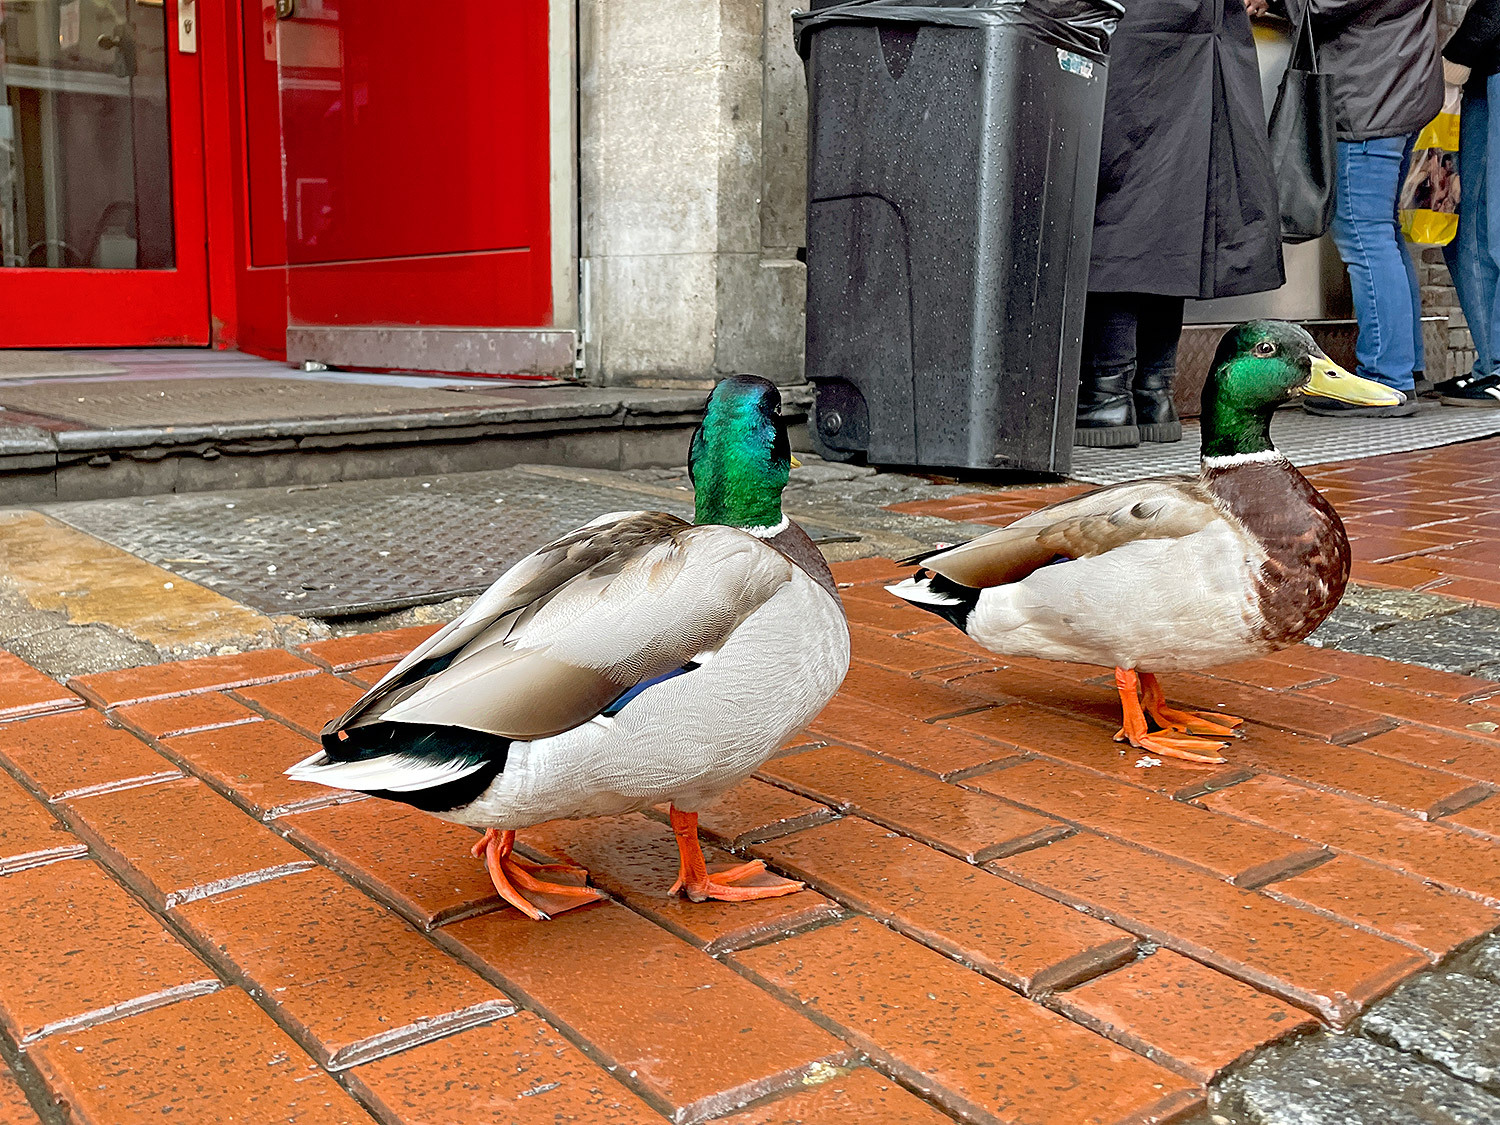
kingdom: Animalia
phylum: Chordata
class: Aves
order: Anseriformes
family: Anatidae
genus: Anas
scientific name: Anas platyrhynchos
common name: Mallard
